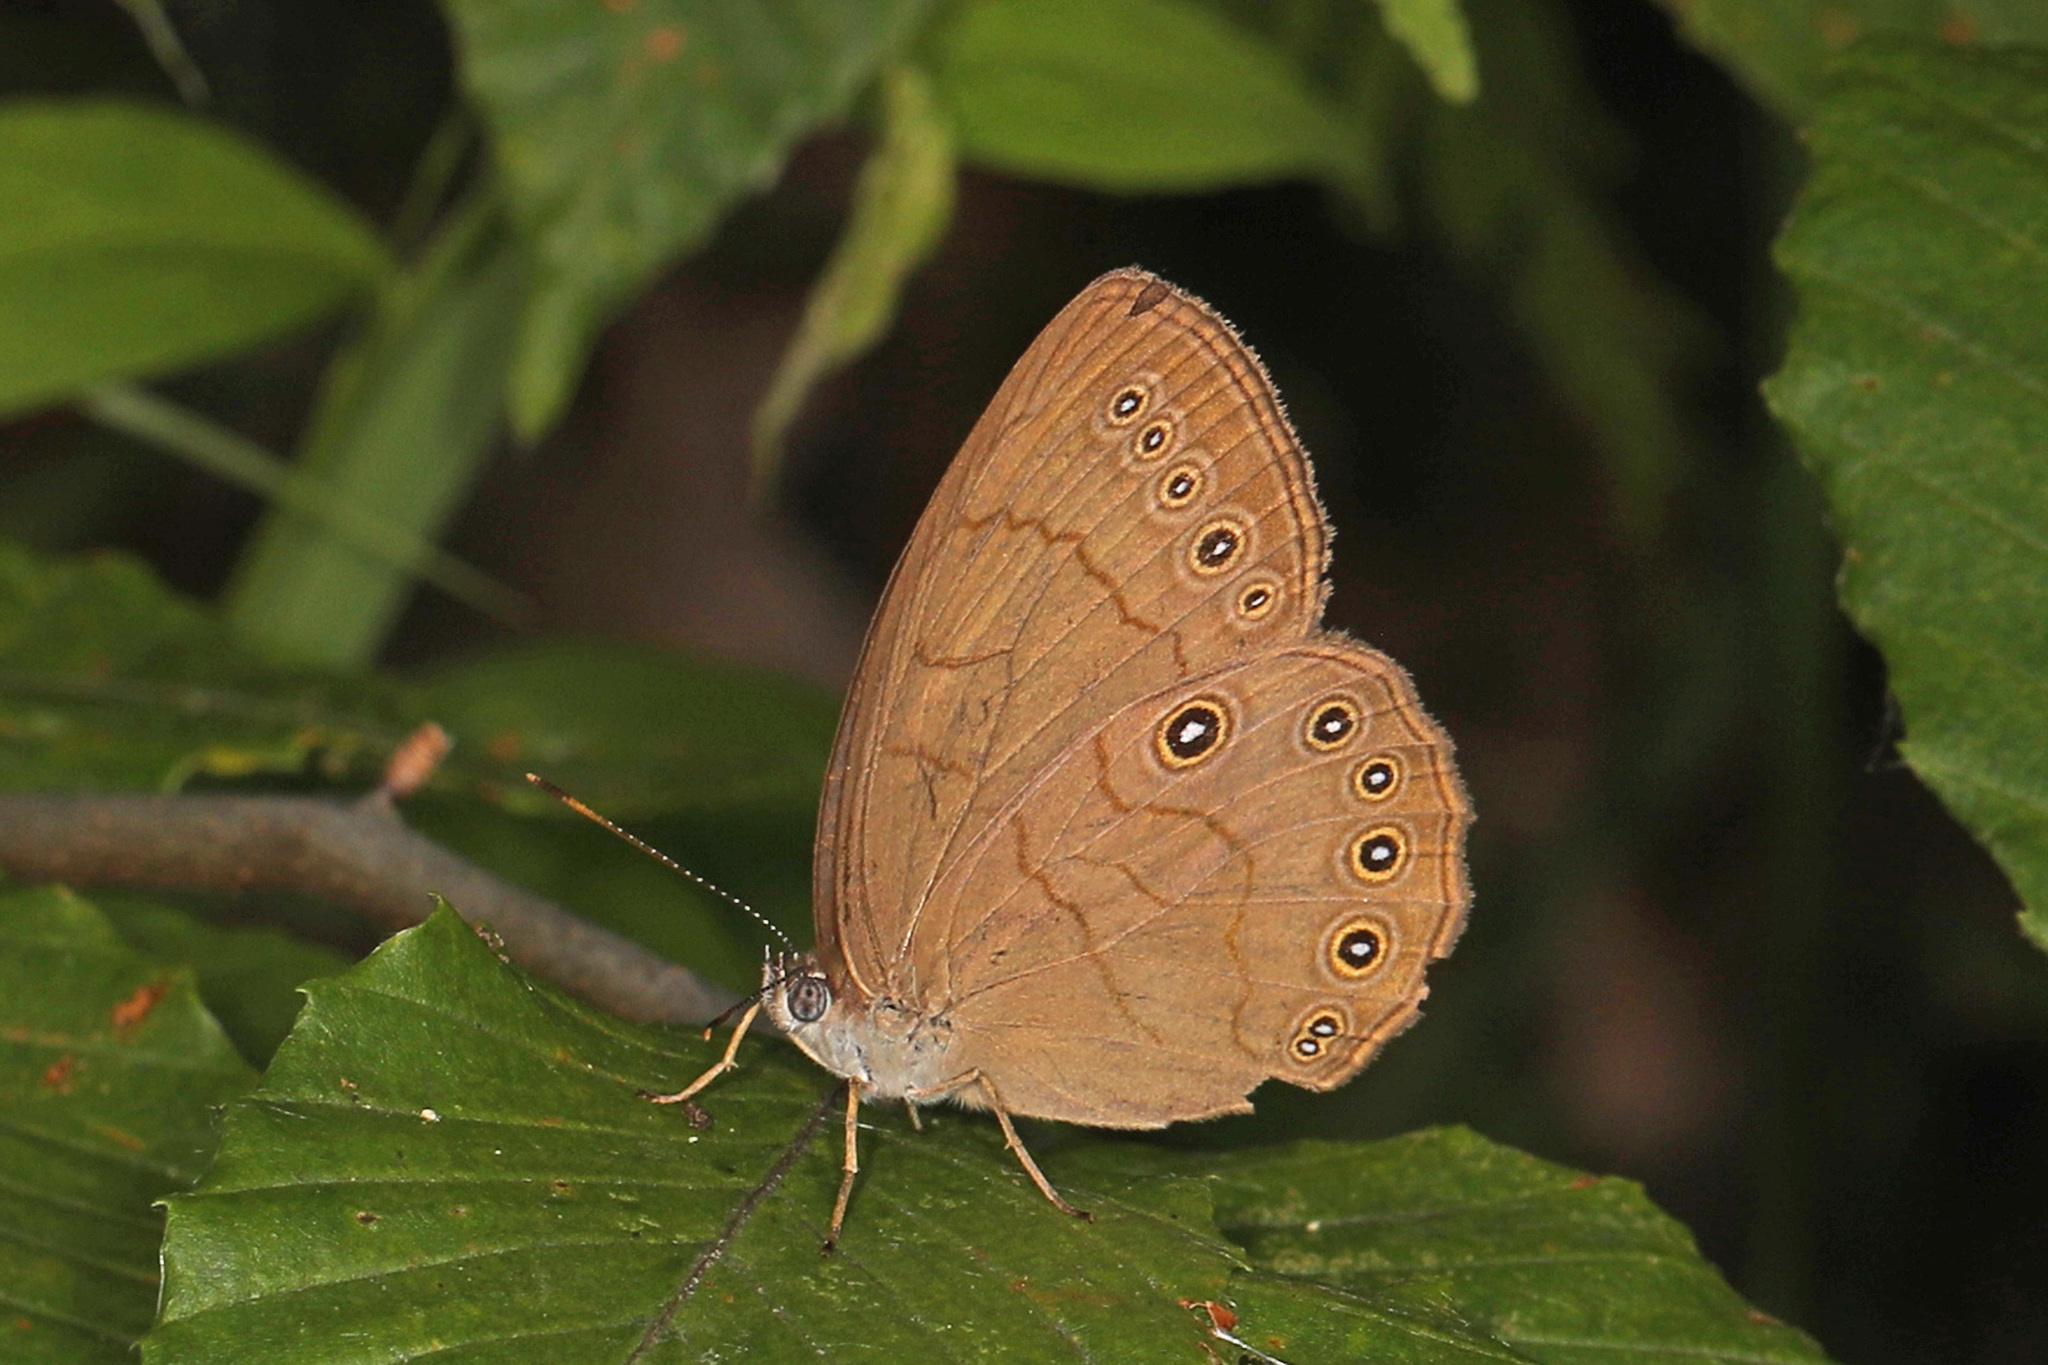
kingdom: Animalia
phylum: Arthropoda
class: Insecta
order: Lepidoptera
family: Nymphalidae
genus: Lethe
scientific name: Lethe eurydice
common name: Eyed brown
